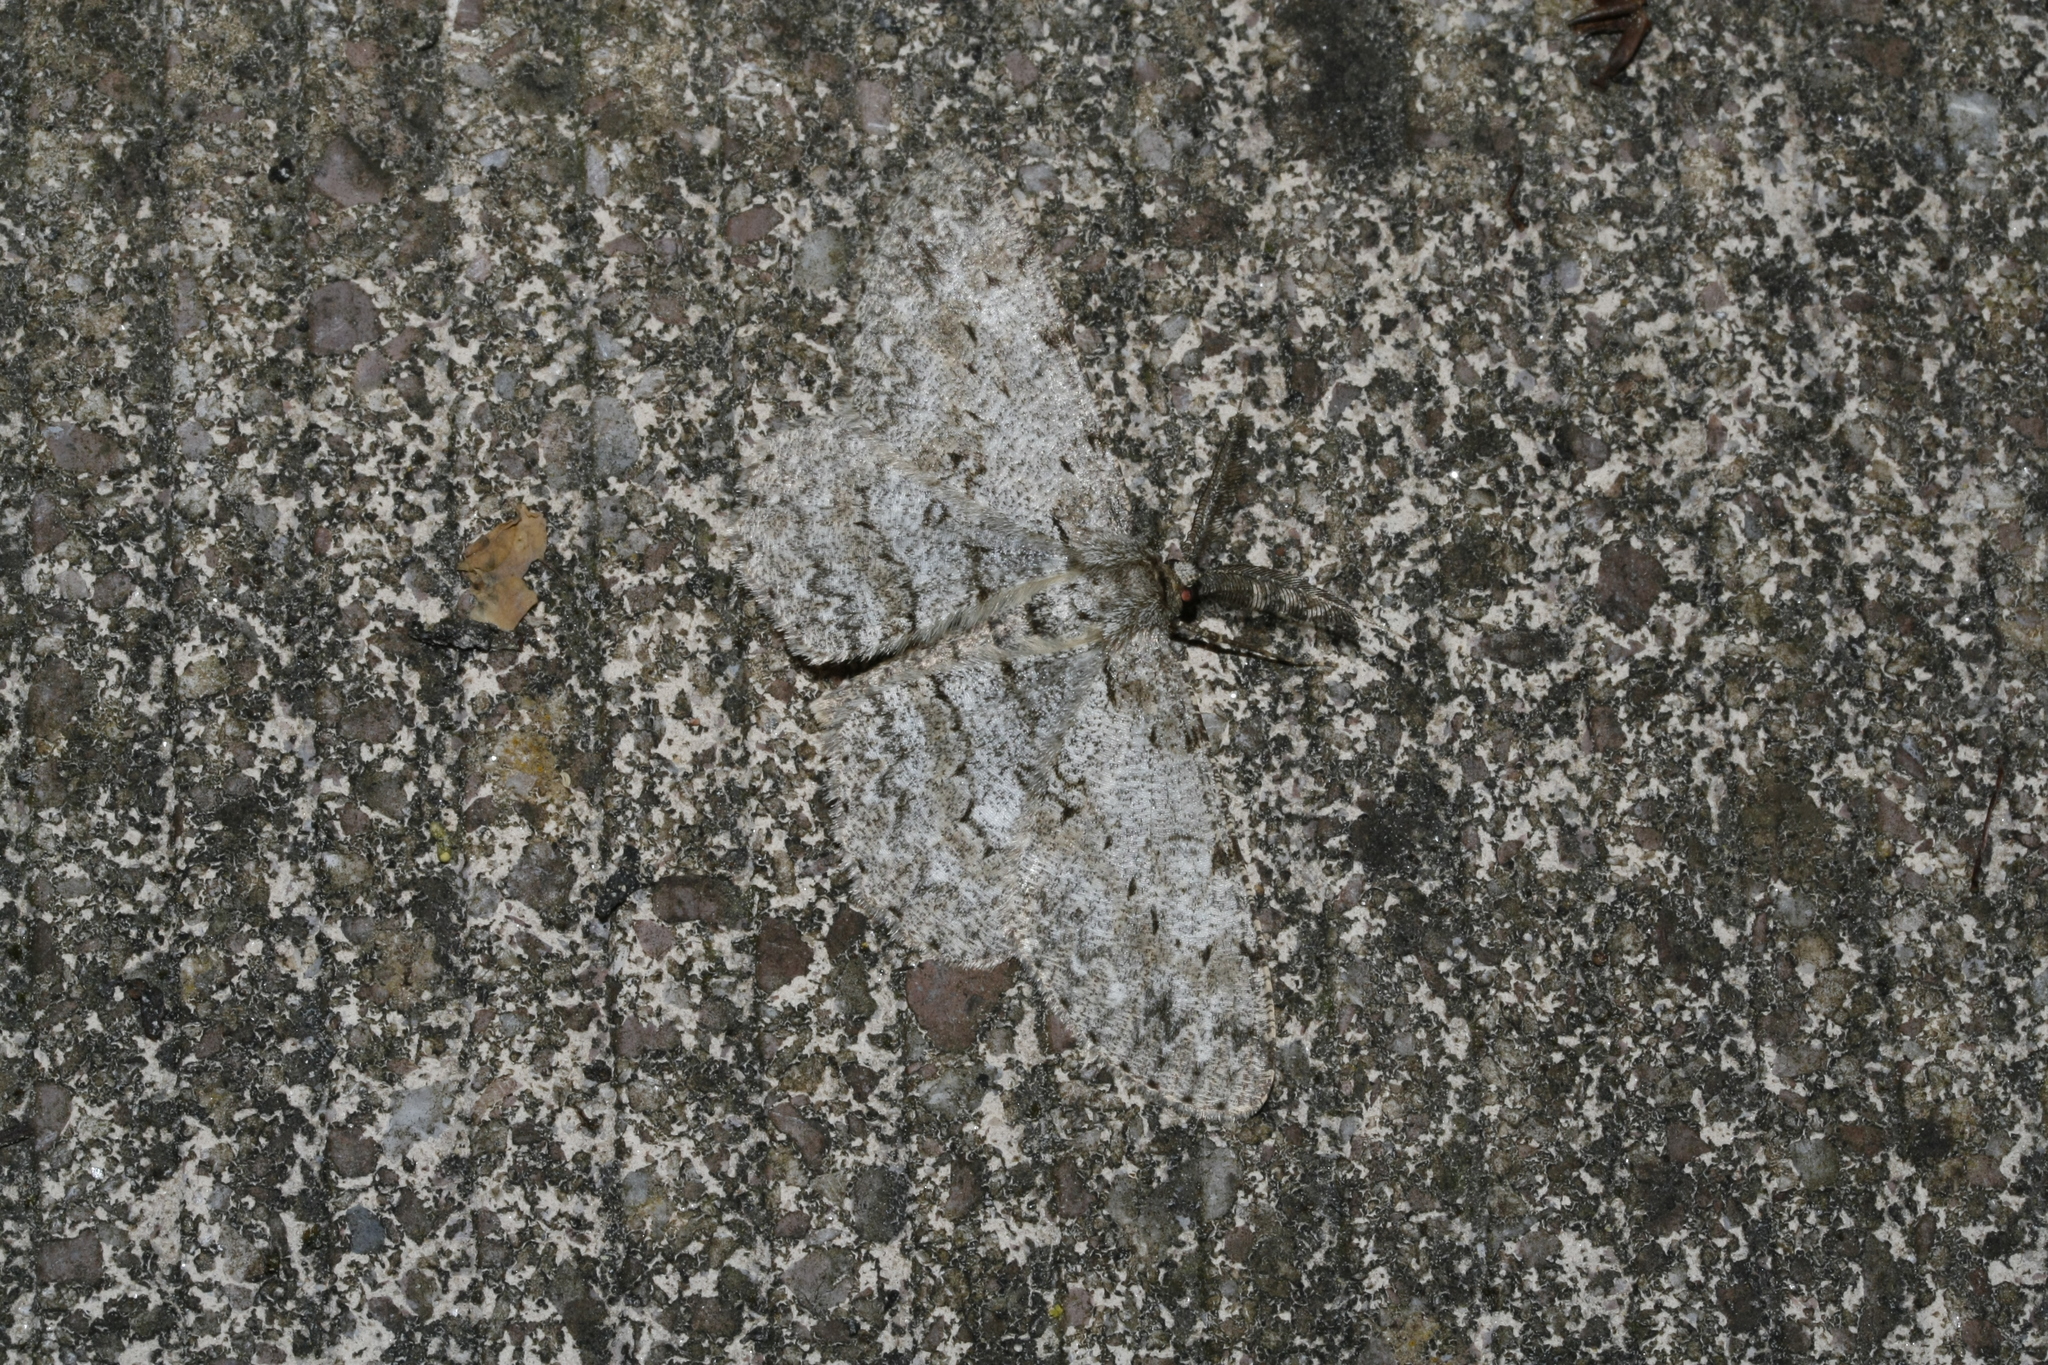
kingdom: Animalia
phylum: Arthropoda
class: Insecta
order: Lepidoptera
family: Geometridae
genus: Hypomecis
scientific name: Hypomecis punctinalis
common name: Pale oak beauty
